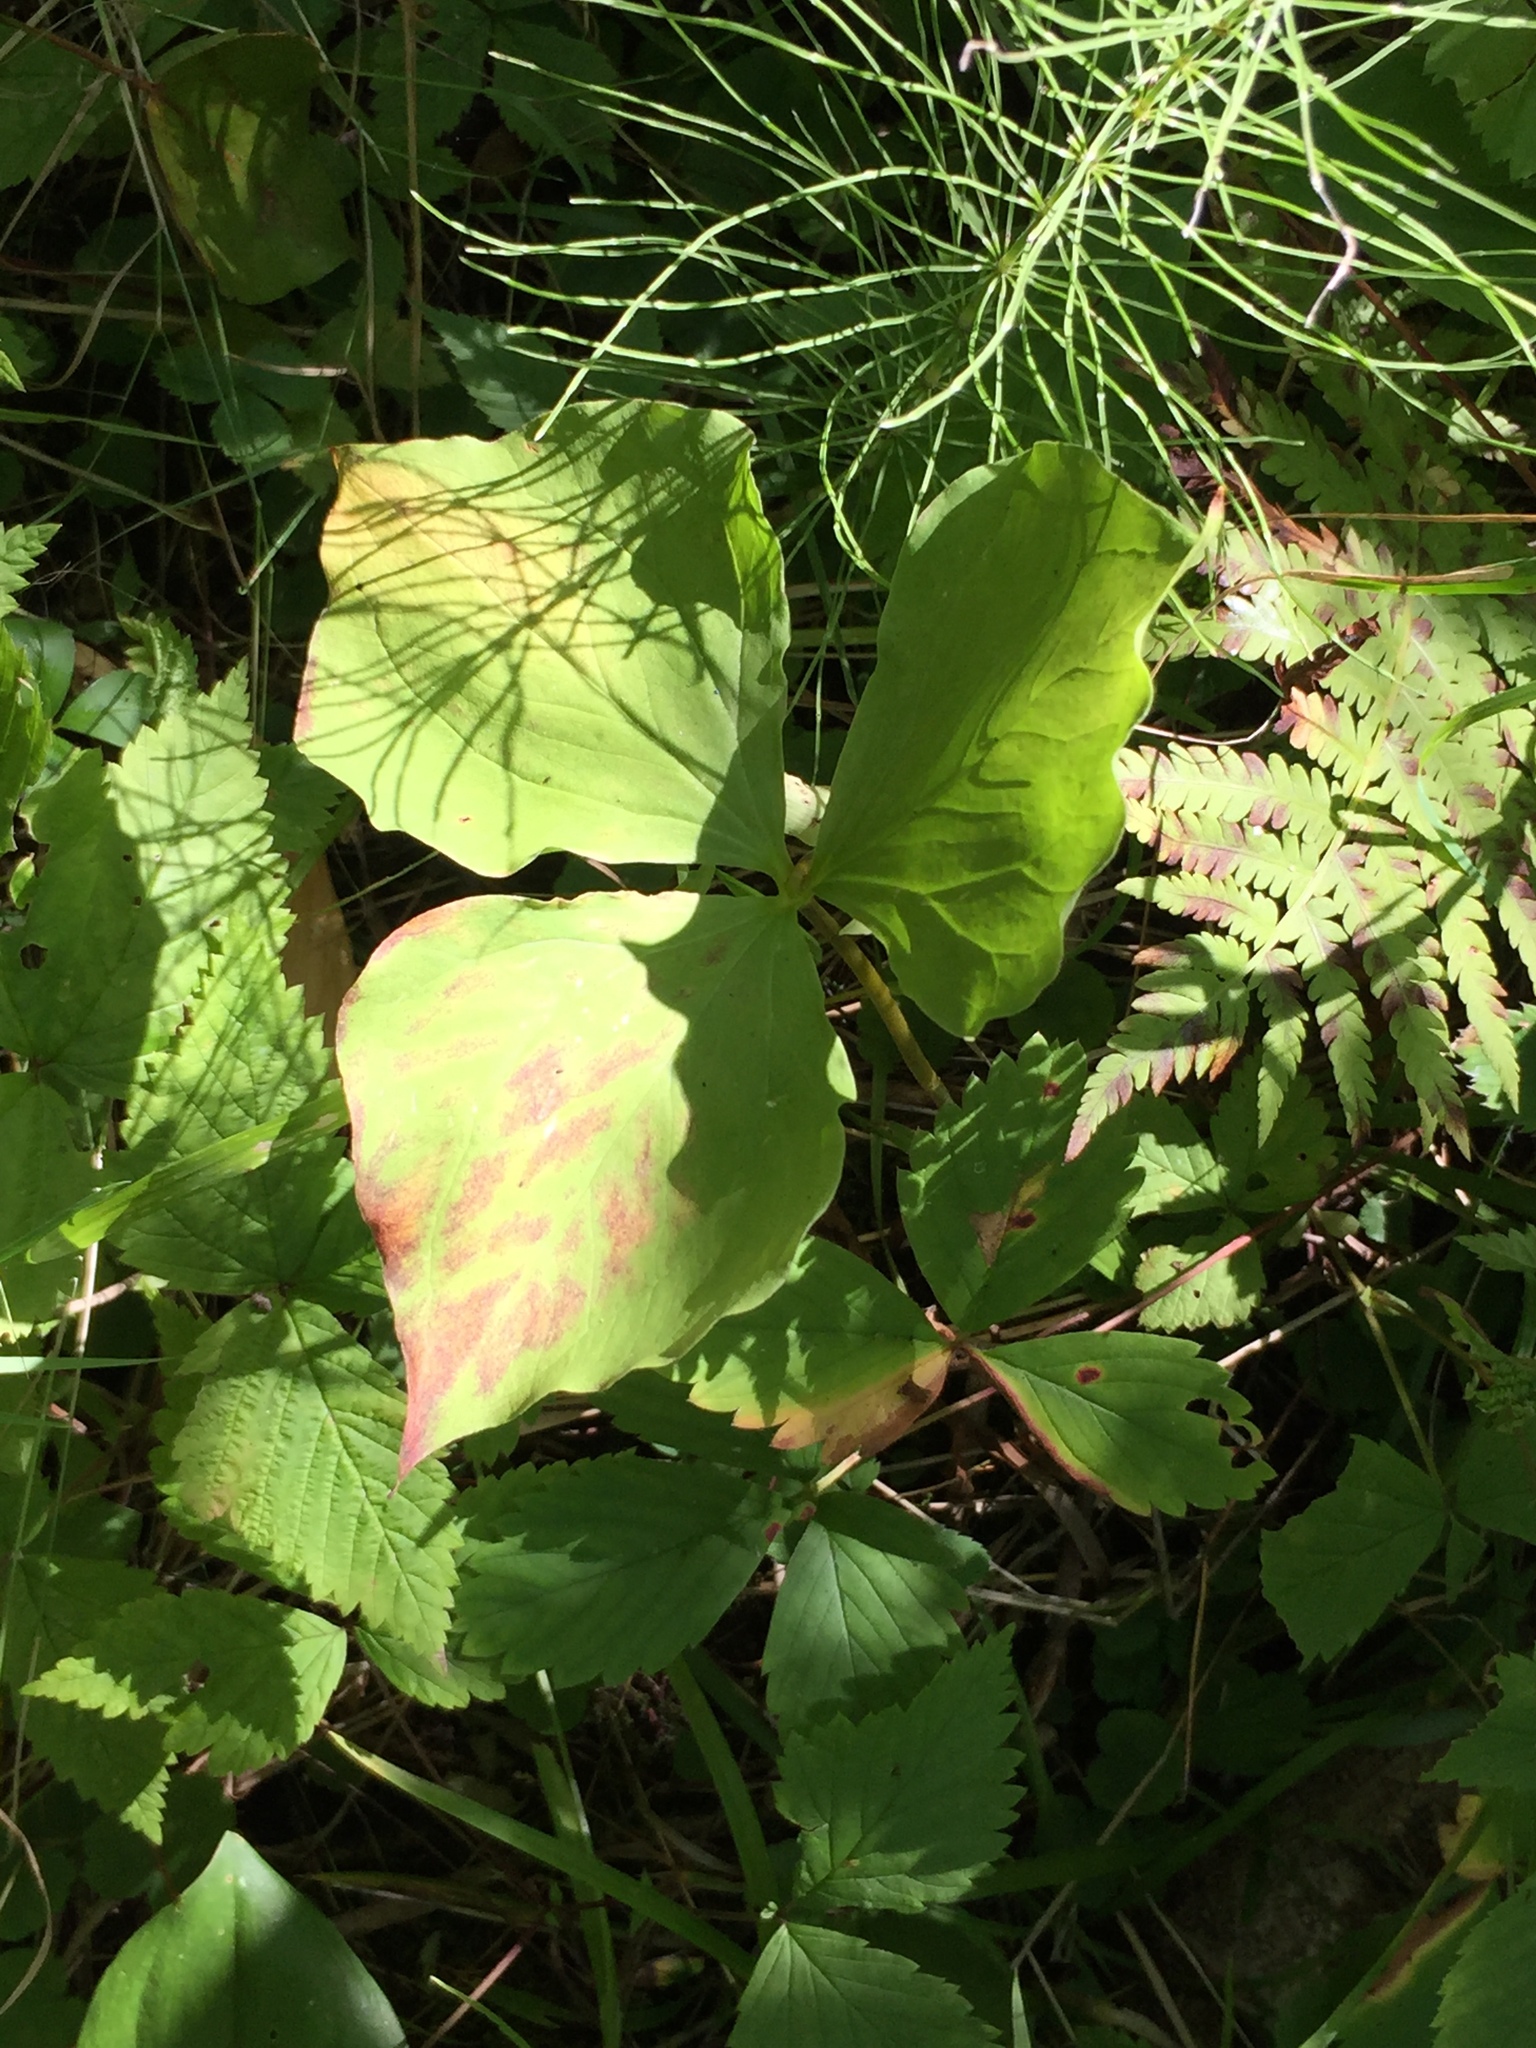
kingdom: Plantae
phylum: Tracheophyta
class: Liliopsida
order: Liliales
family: Melanthiaceae
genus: Trillium
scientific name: Trillium cernuum
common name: Nodding trillium
